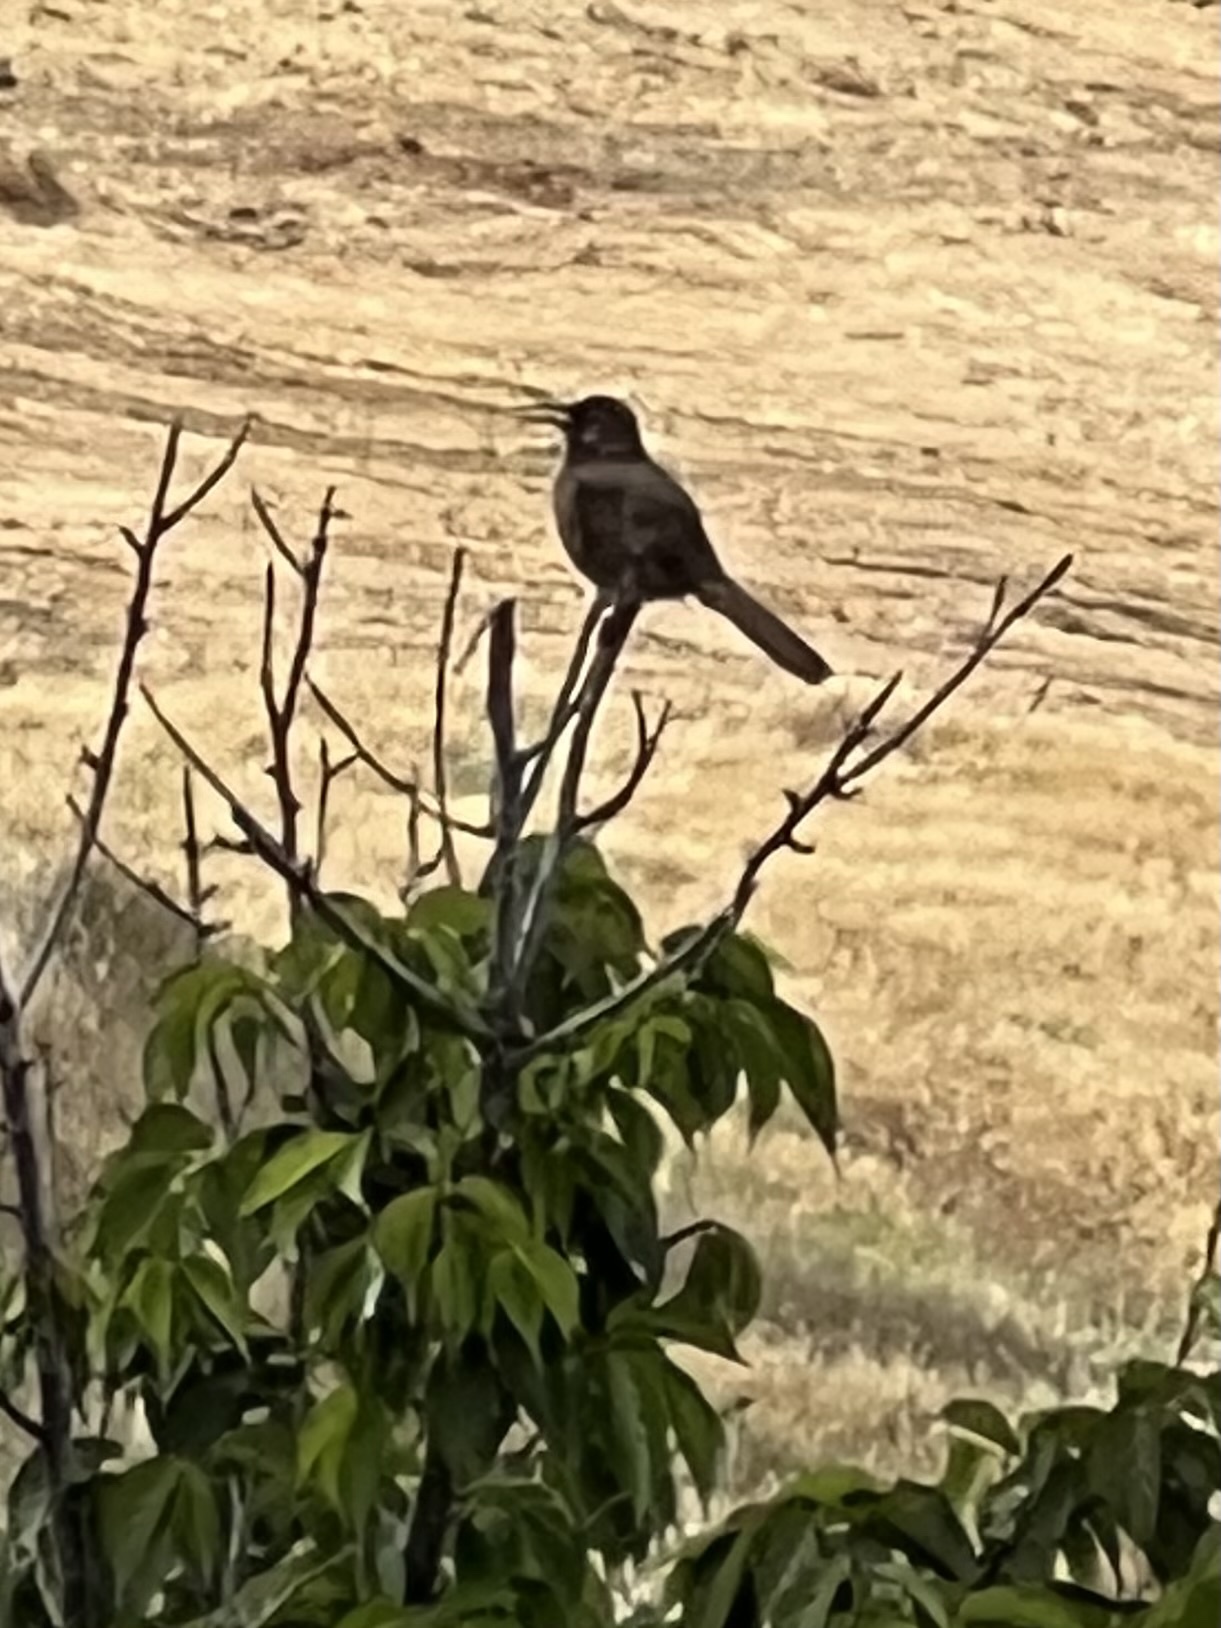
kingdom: Animalia
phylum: Chordata
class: Aves
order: Passeriformes
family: Mimidae
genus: Toxostoma
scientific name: Toxostoma redivivum
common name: California thrasher
